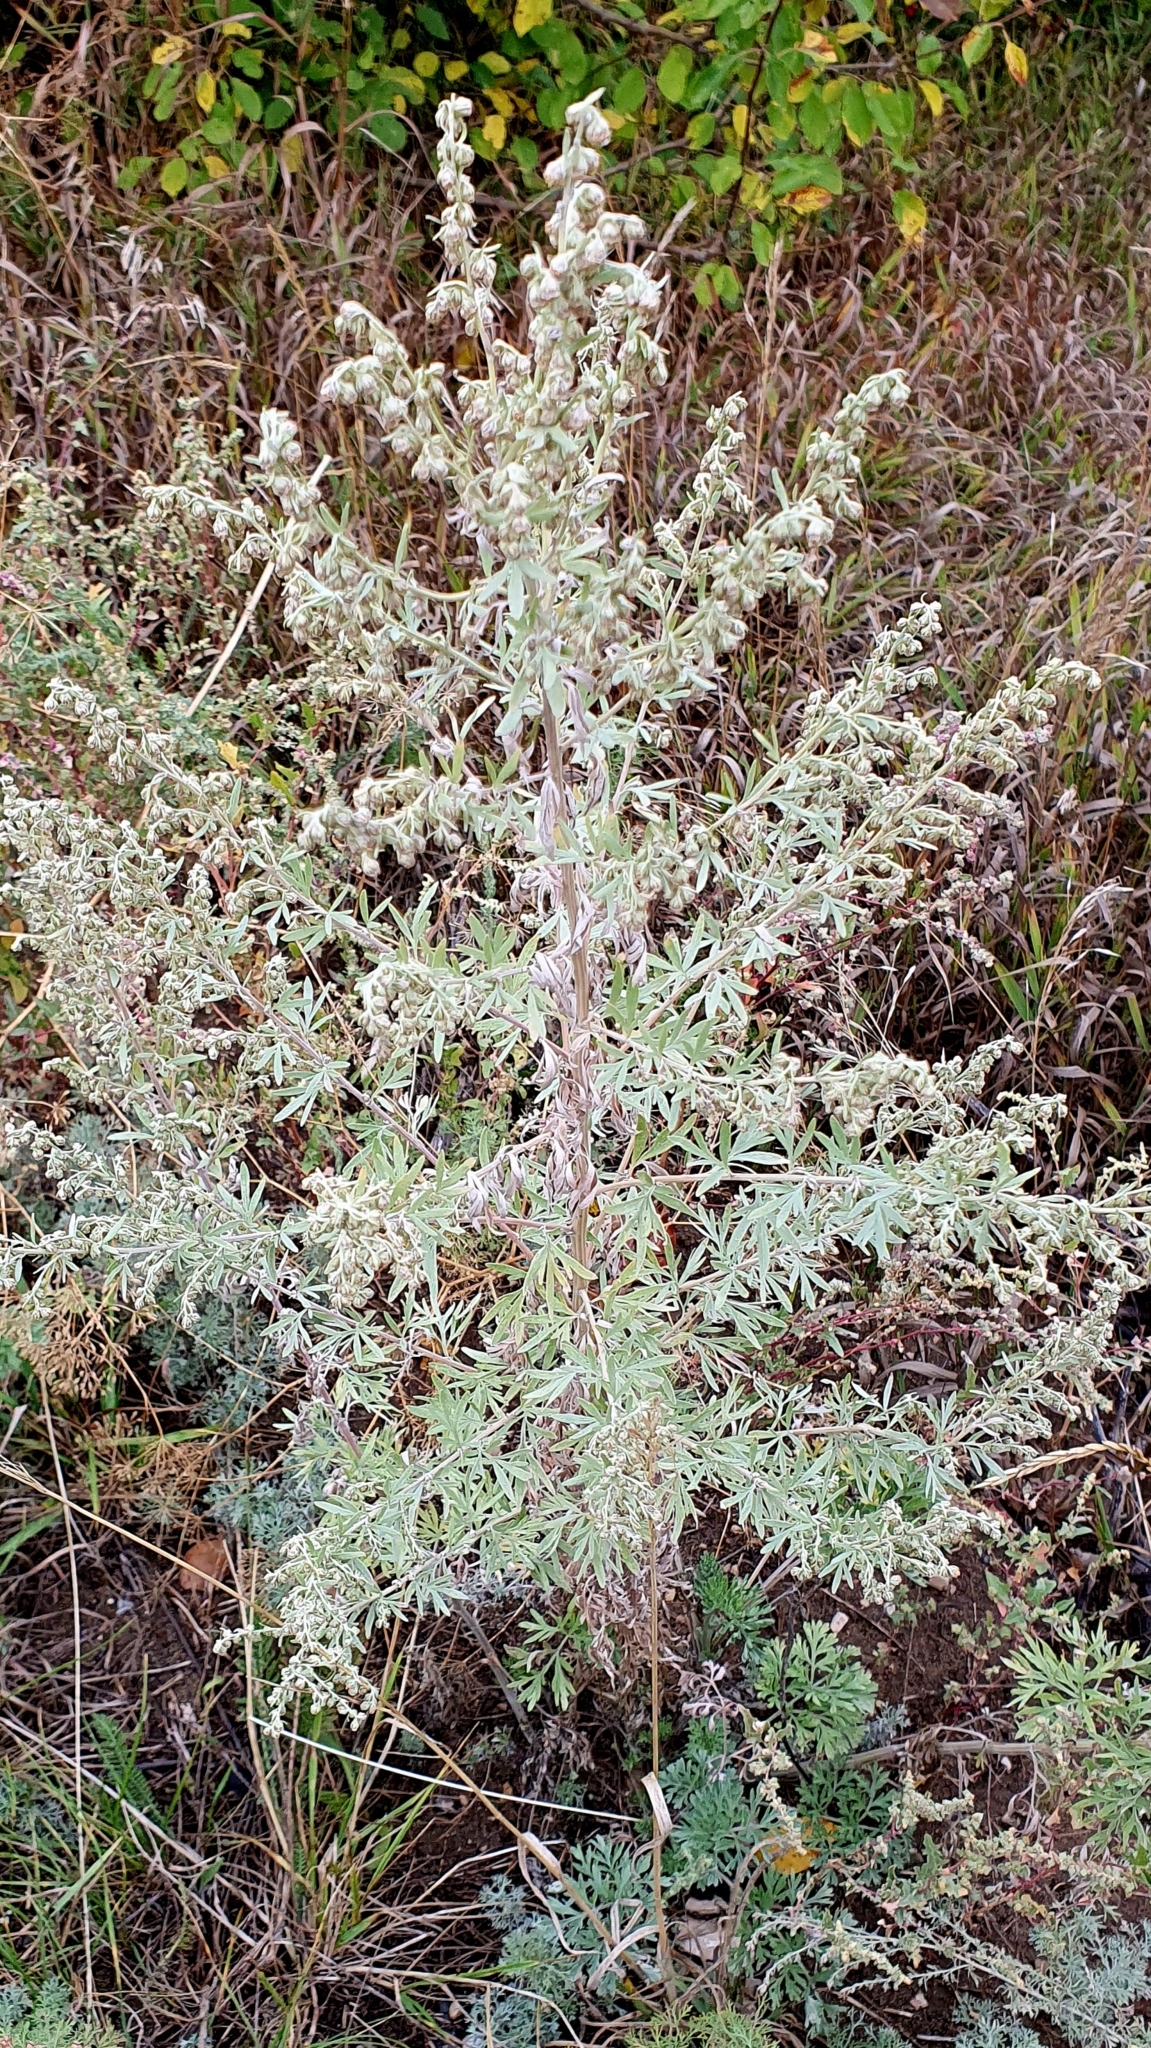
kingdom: Plantae
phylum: Tracheophyta
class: Magnoliopsida
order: Asterales
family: Asteraceae
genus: Artemisia
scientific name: Artemisia absinthium
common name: Wormwood
